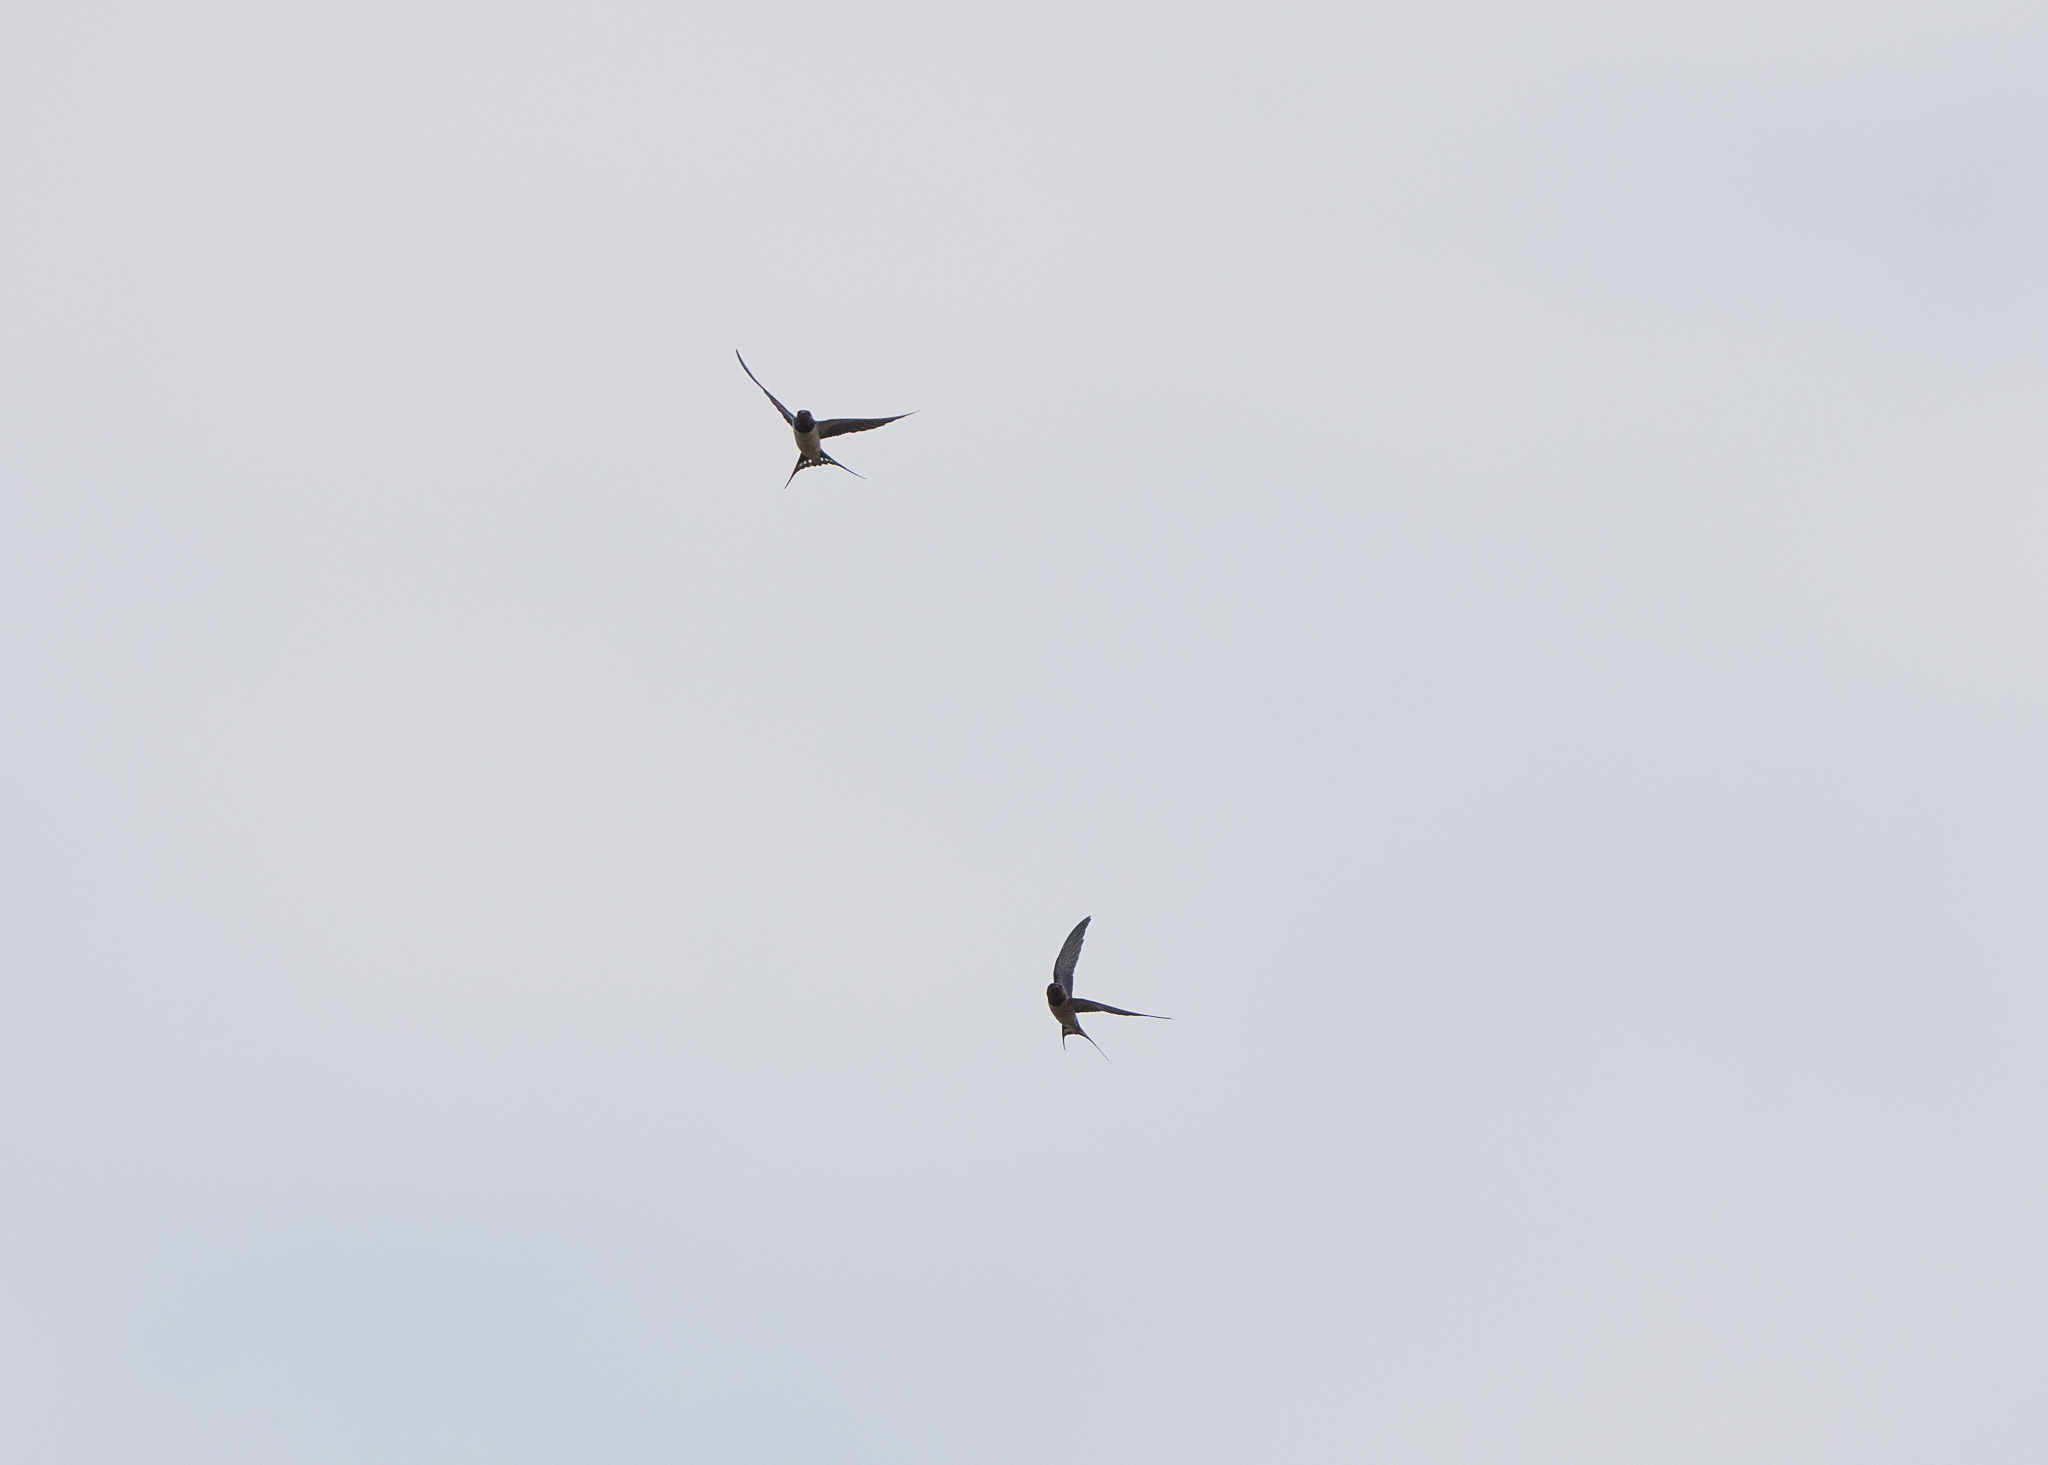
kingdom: Animalia
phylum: Chordata
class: Aves
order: Passeriformes
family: Hirundinidae
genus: Hirundo
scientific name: Hirundo rustica
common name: Barn swallow
